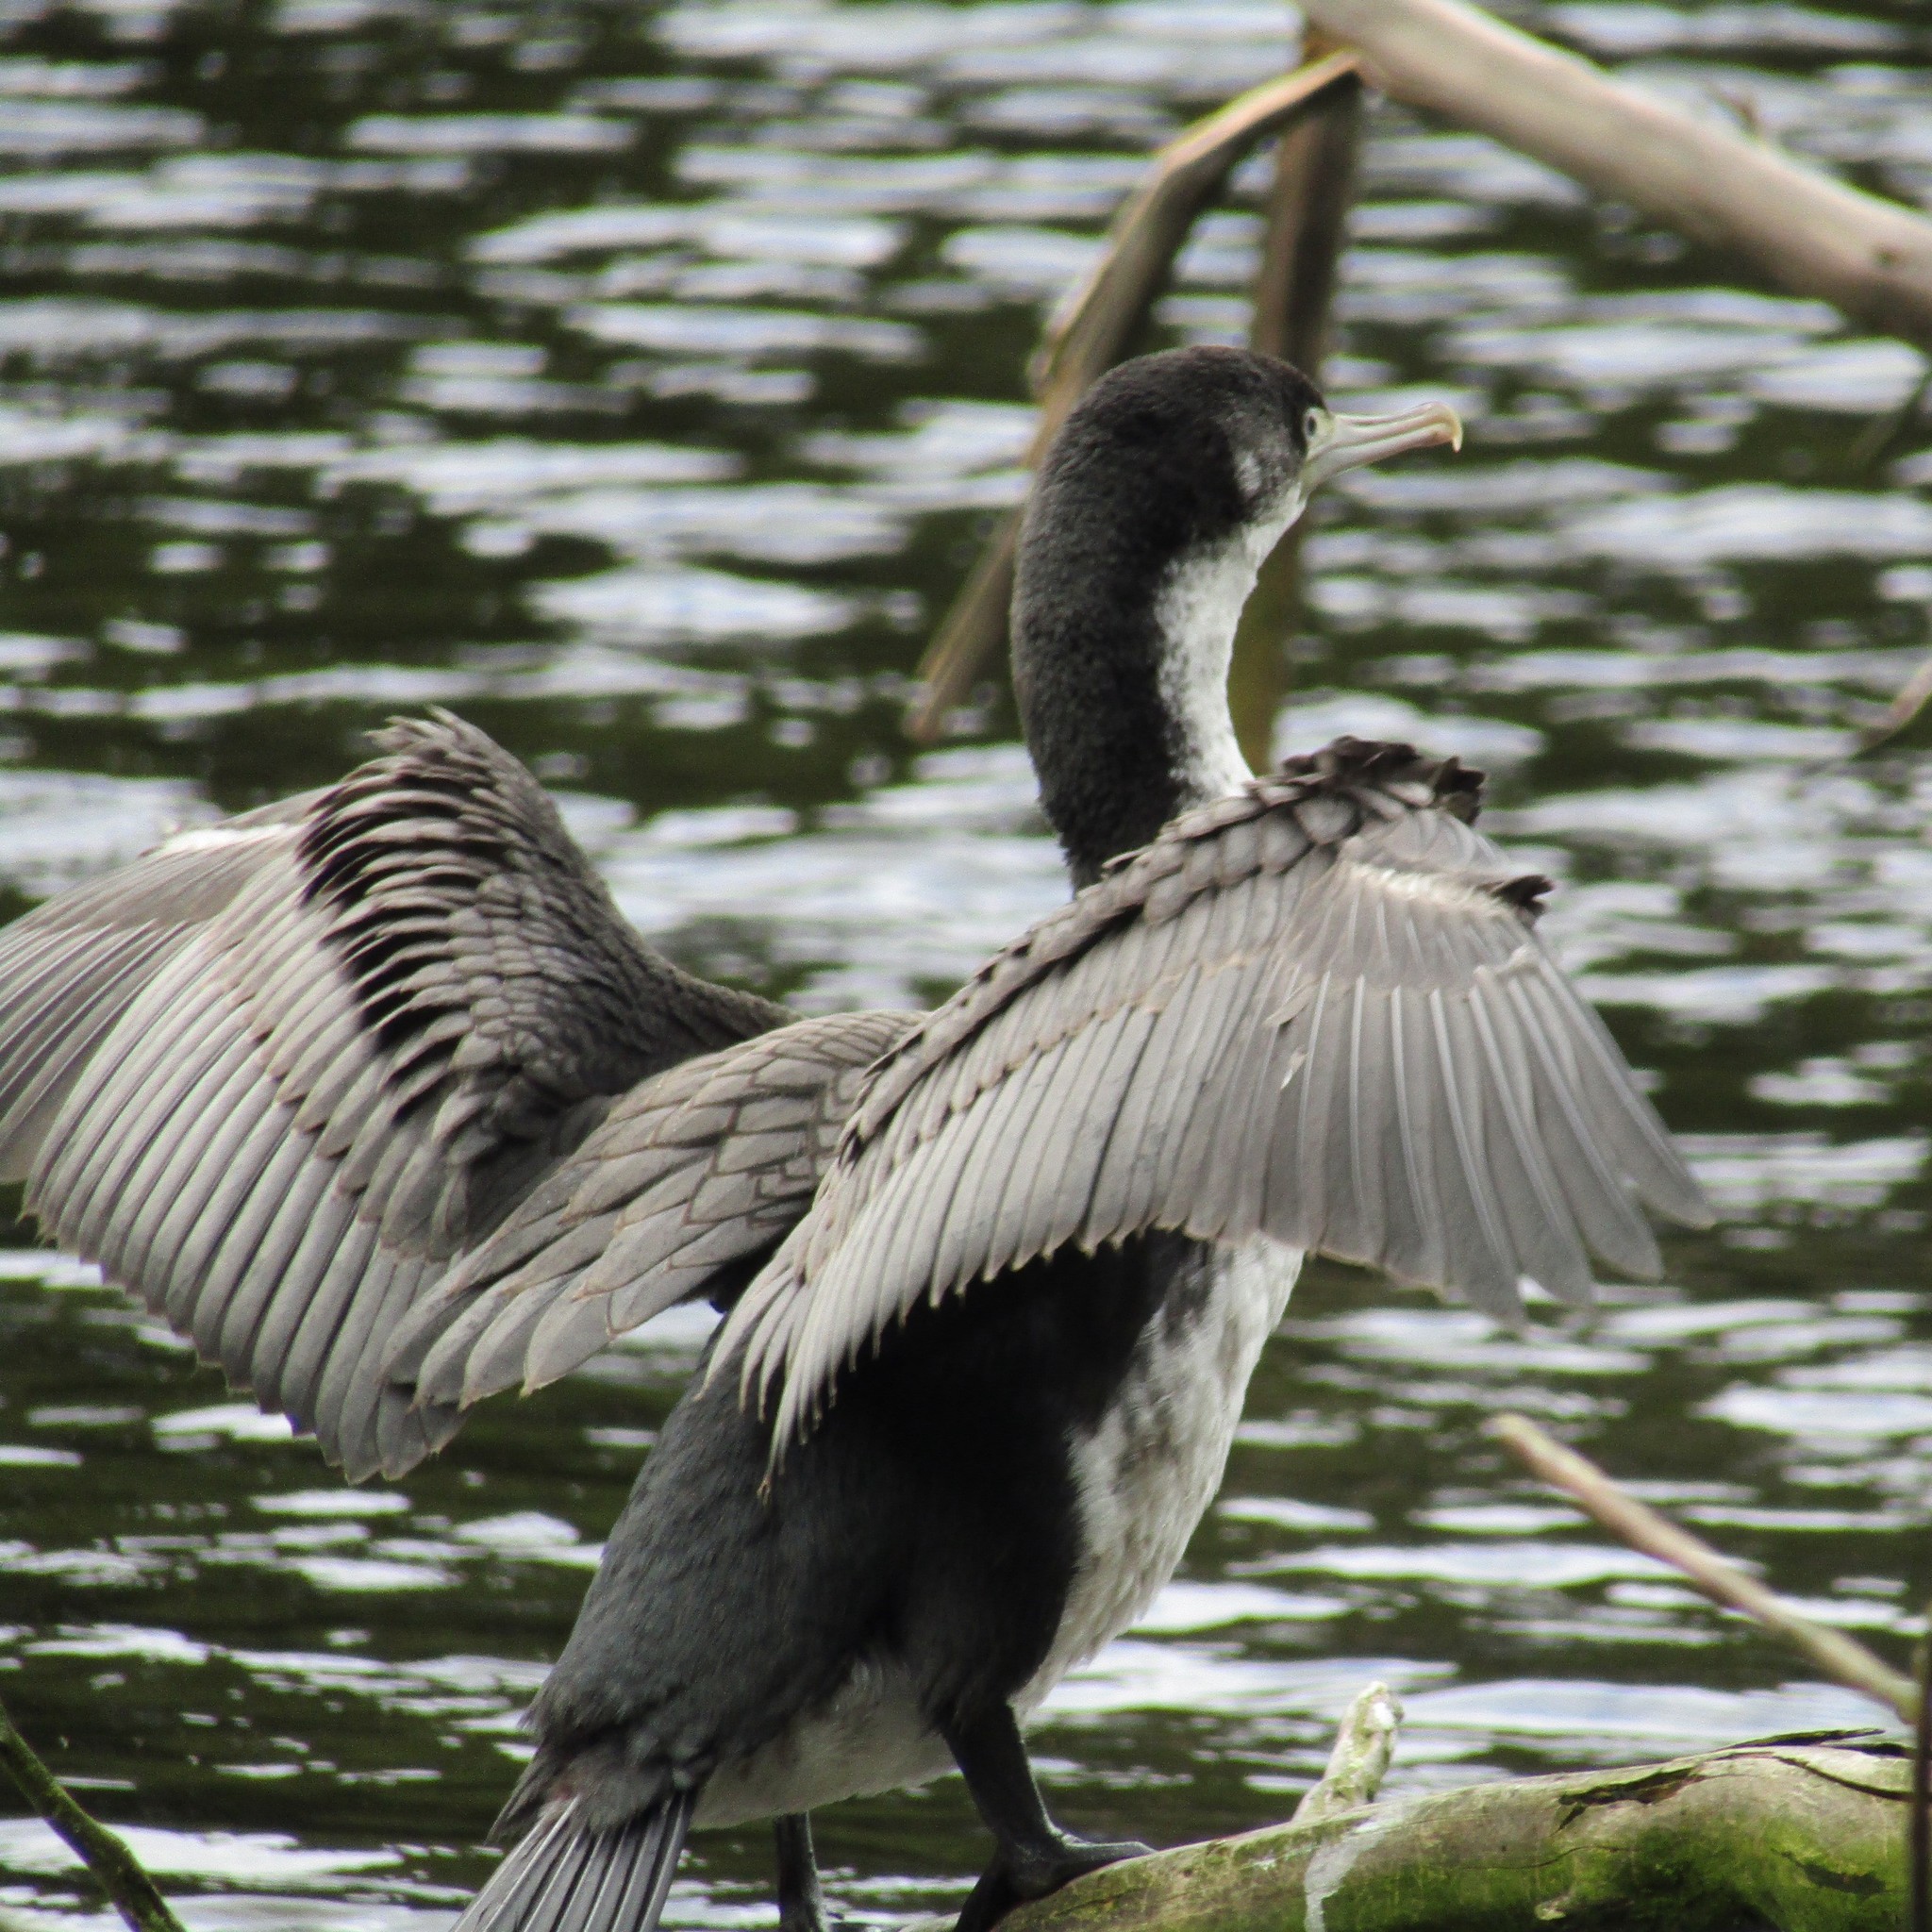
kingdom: Animalia
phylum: Chordata
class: Aves
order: Suliformes
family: Phalacrocoracidae
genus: Phalacrocorax
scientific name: Phalacrocorax varius
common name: Pied cormorant
